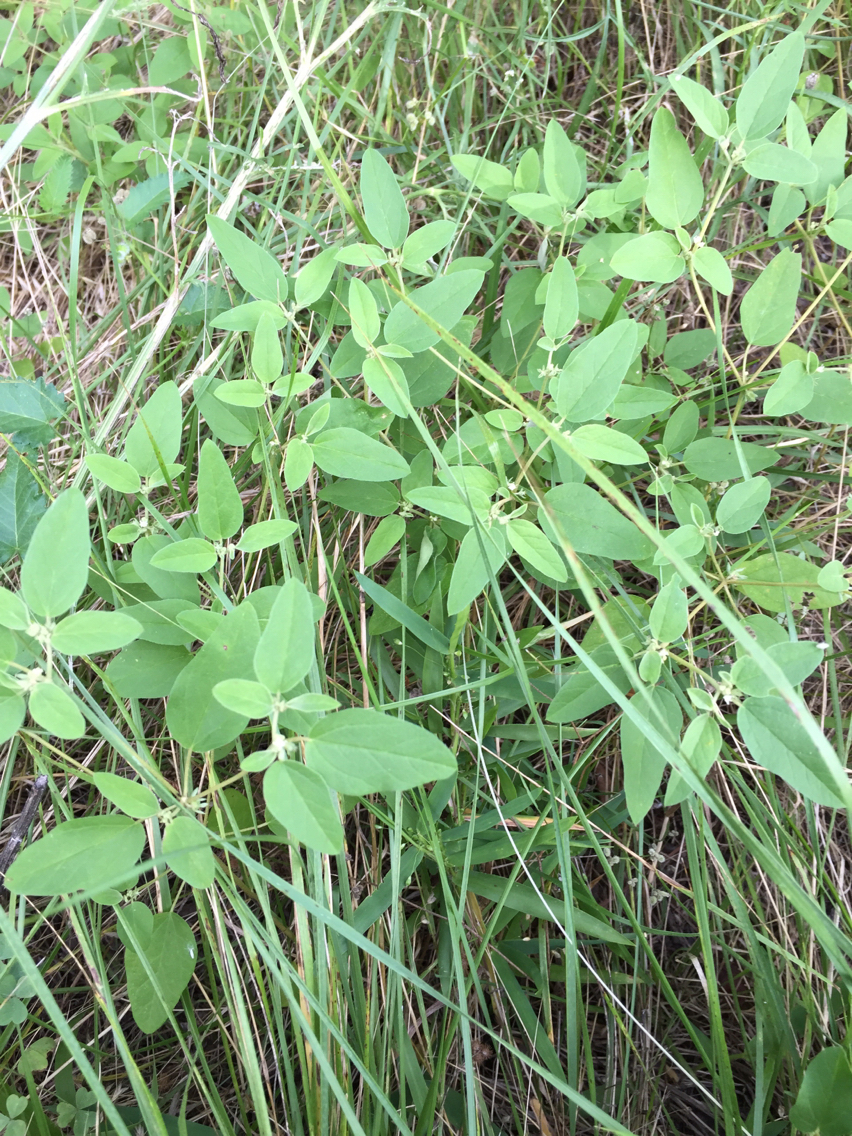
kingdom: Plantae
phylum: Tracheophyta
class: Magnoliopsida
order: Malpighiales
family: Euphorbiaceae
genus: Croton
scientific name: Croton monanthogynus
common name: One-seed croton
